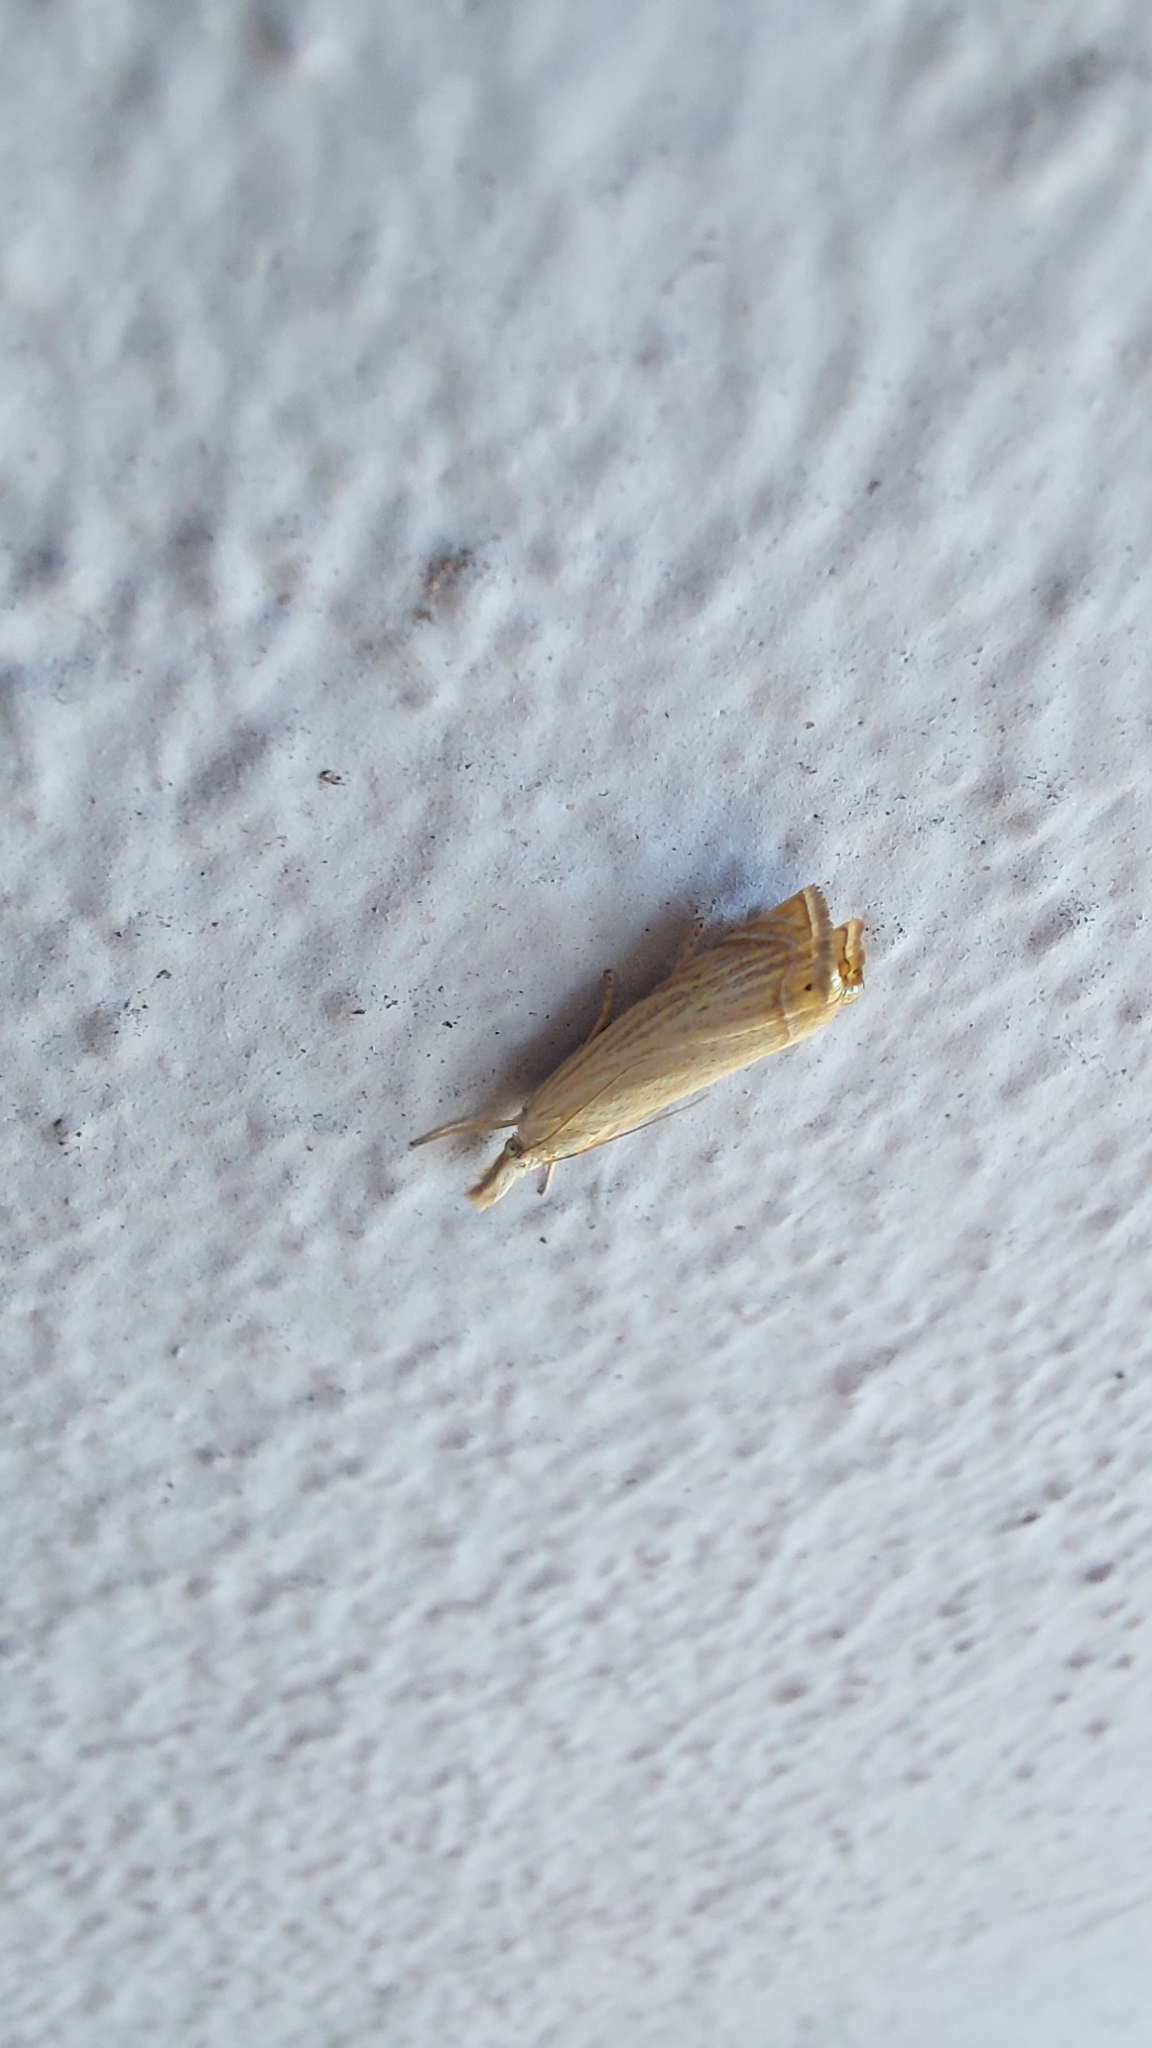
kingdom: Animalia
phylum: Arthropoda
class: Insecta
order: Lepidoptera
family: Crambidae
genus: Chrysoteuchia
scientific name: Chrysoteuchia culmella
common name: Garden grass-veneer
